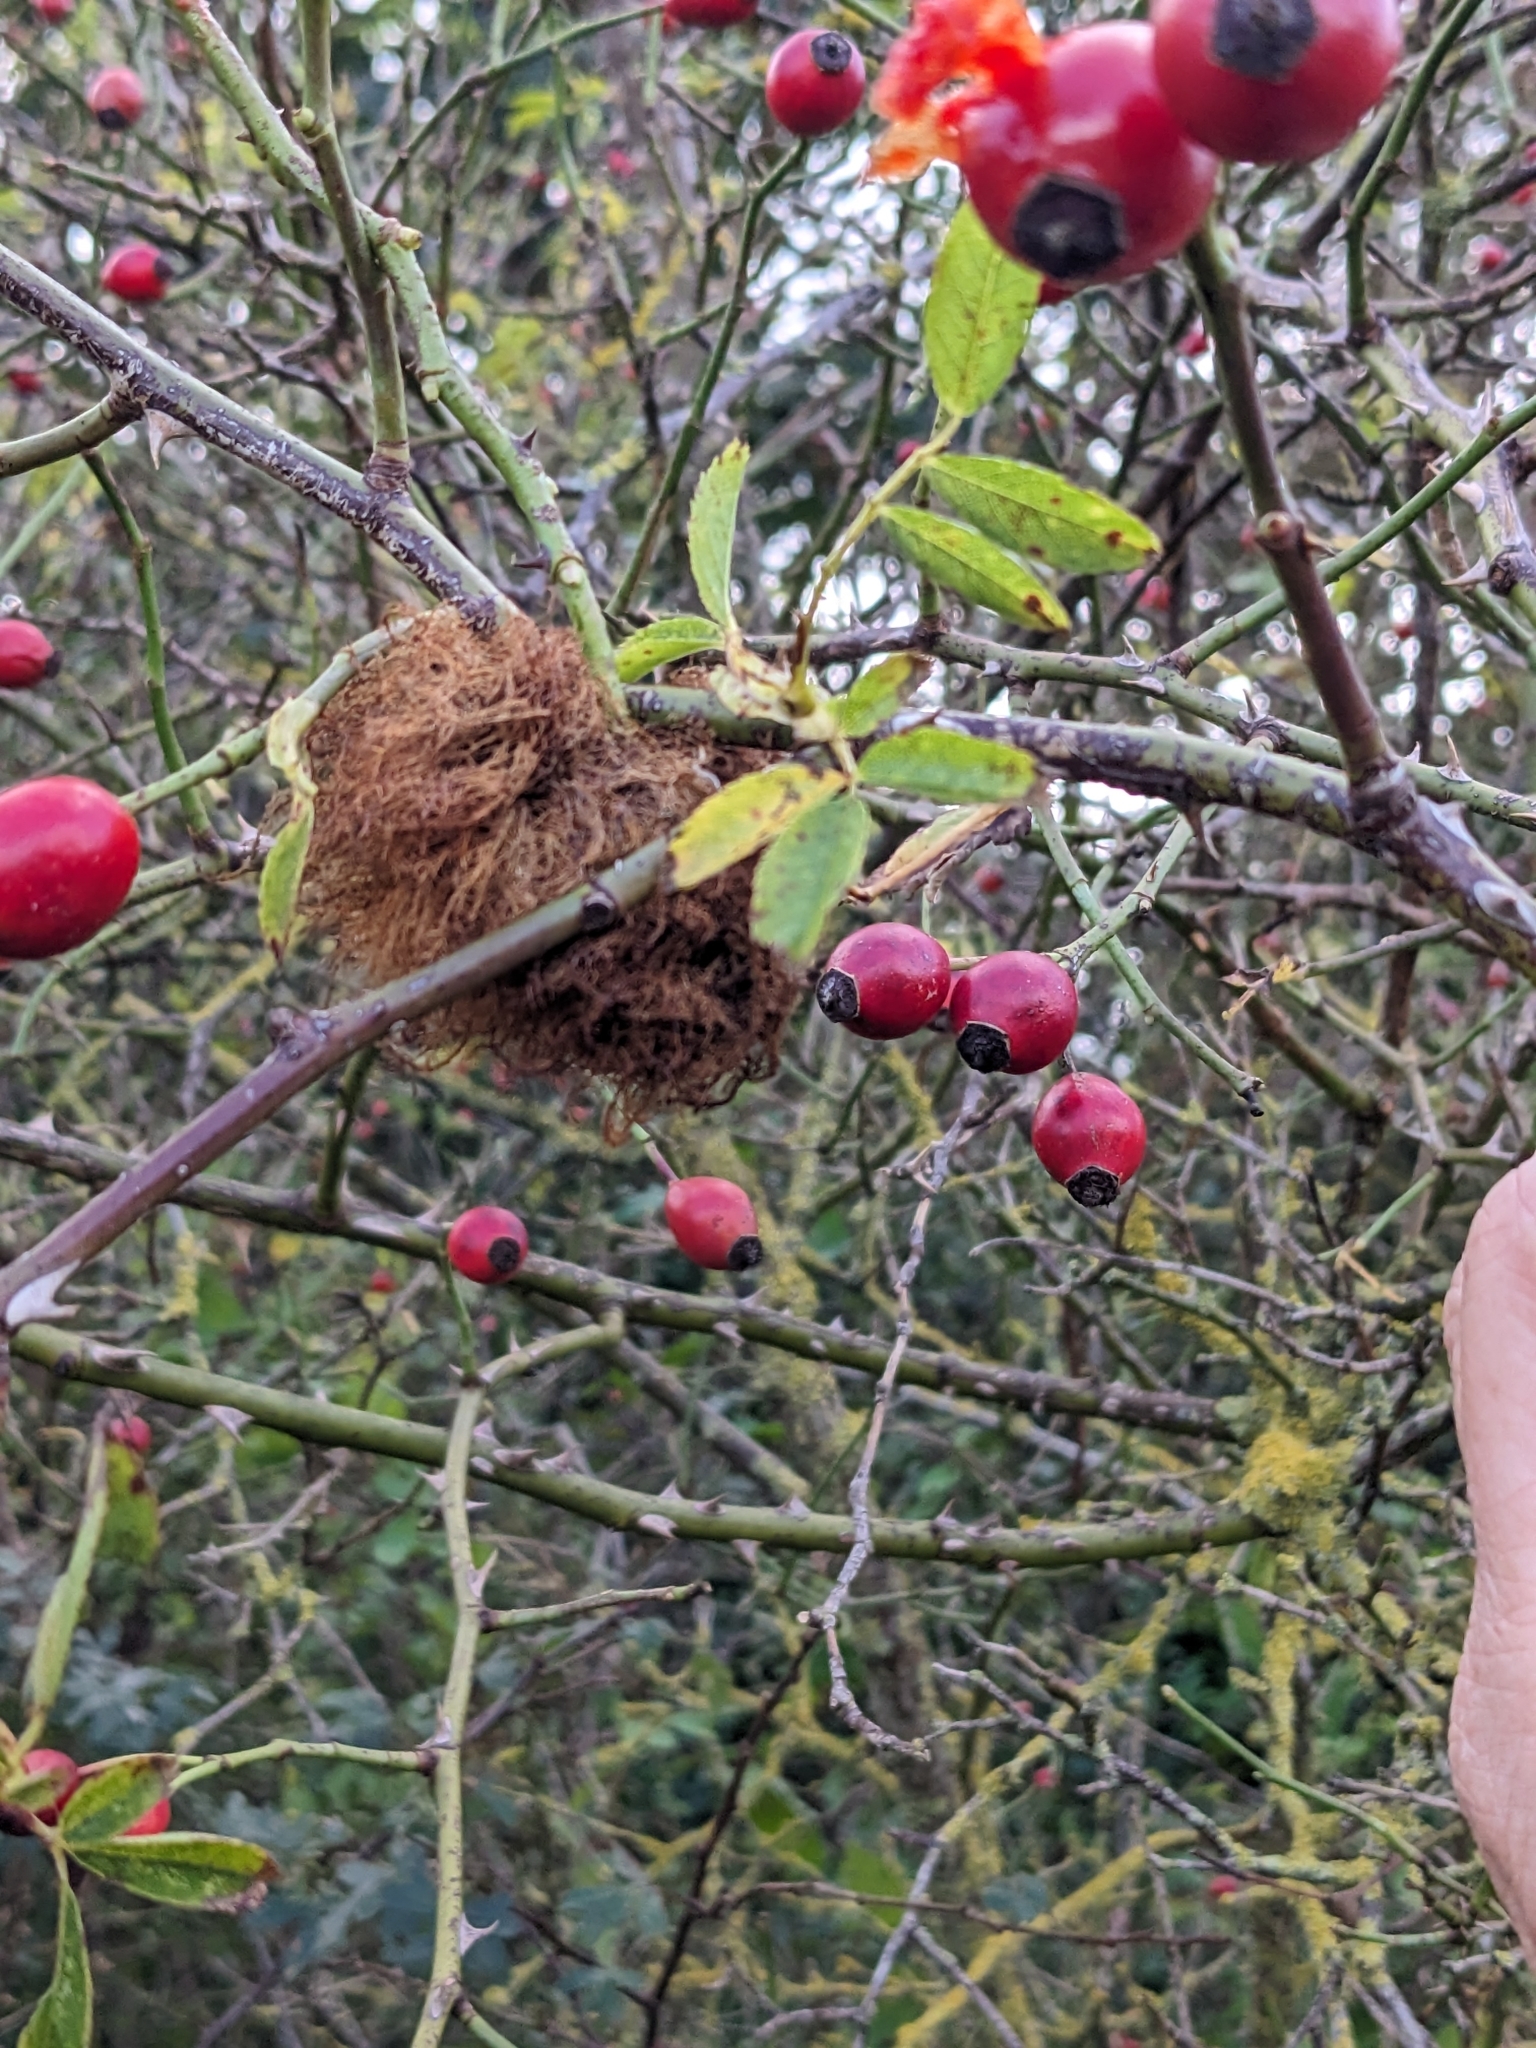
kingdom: Animalia
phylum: Arthropoda
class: Insecta
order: Hymenoptera
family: Cynipidae
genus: Diplolepis
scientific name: Diplolepis rosae
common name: Bedeguar gall
